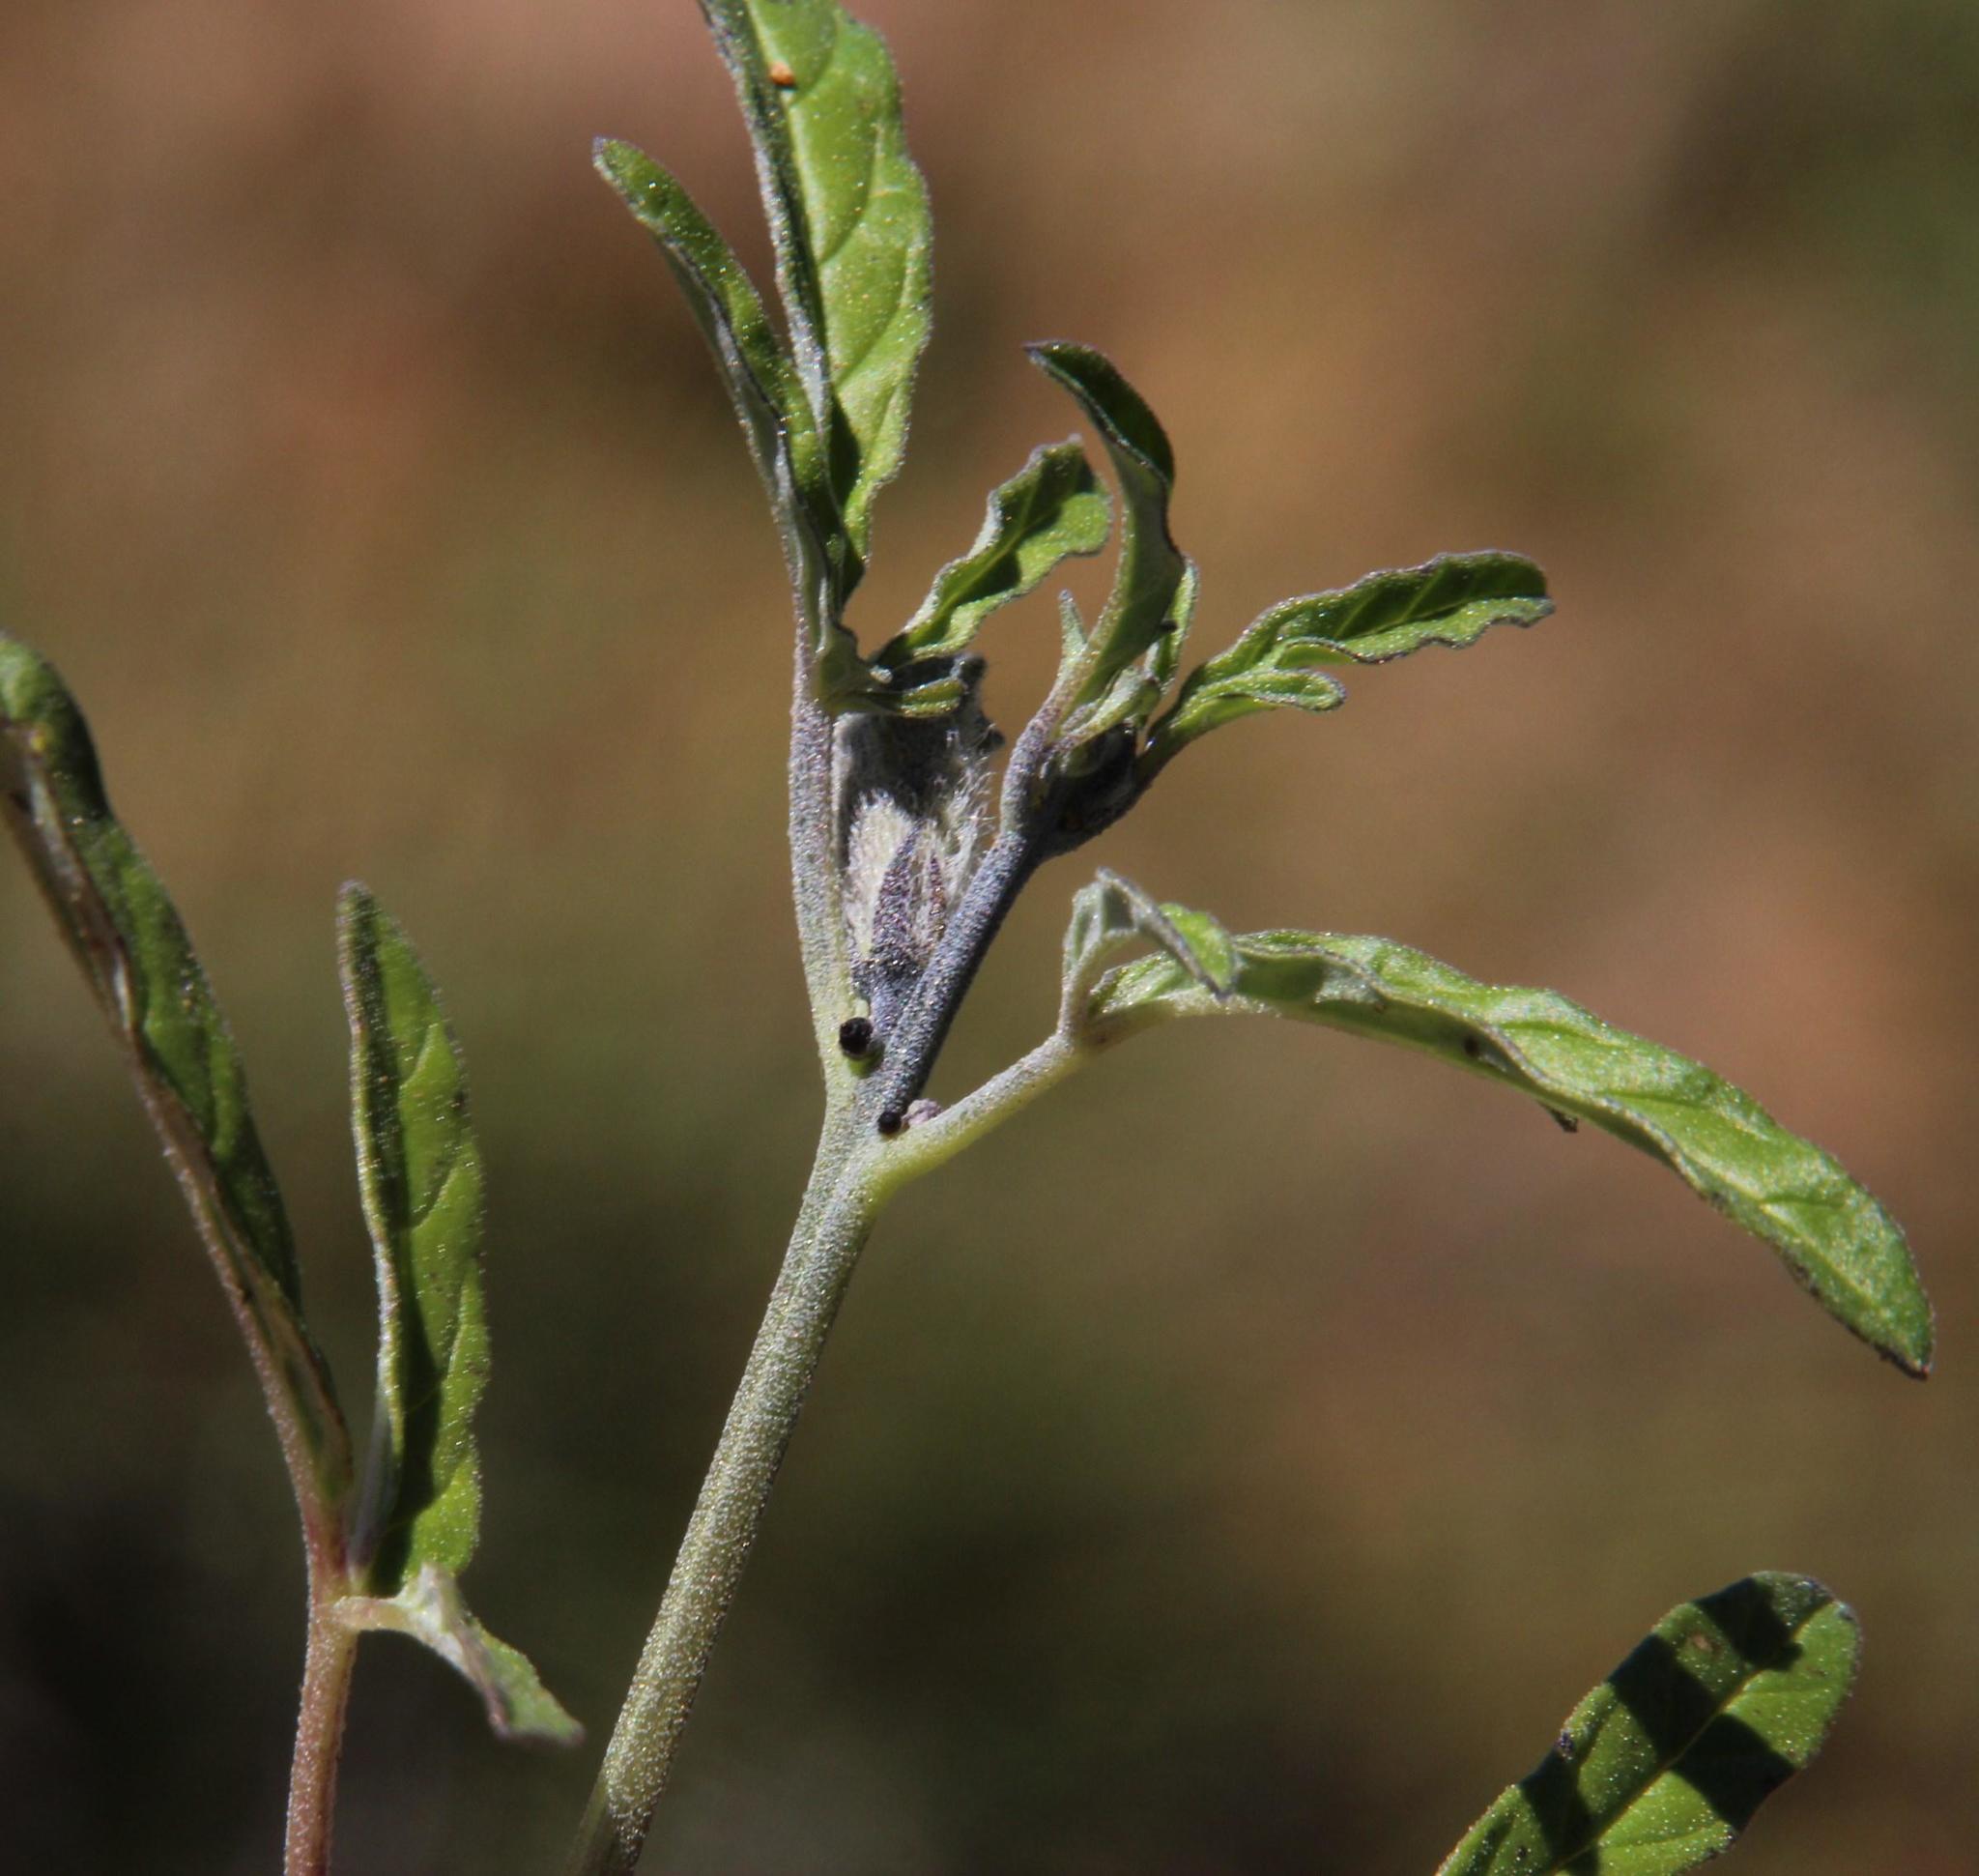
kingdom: Plantae
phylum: Tracheophyta
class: Magnoliopsida
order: Lamiales
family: Pedaliaceae
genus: Sesamum
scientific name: Sesamum capense
